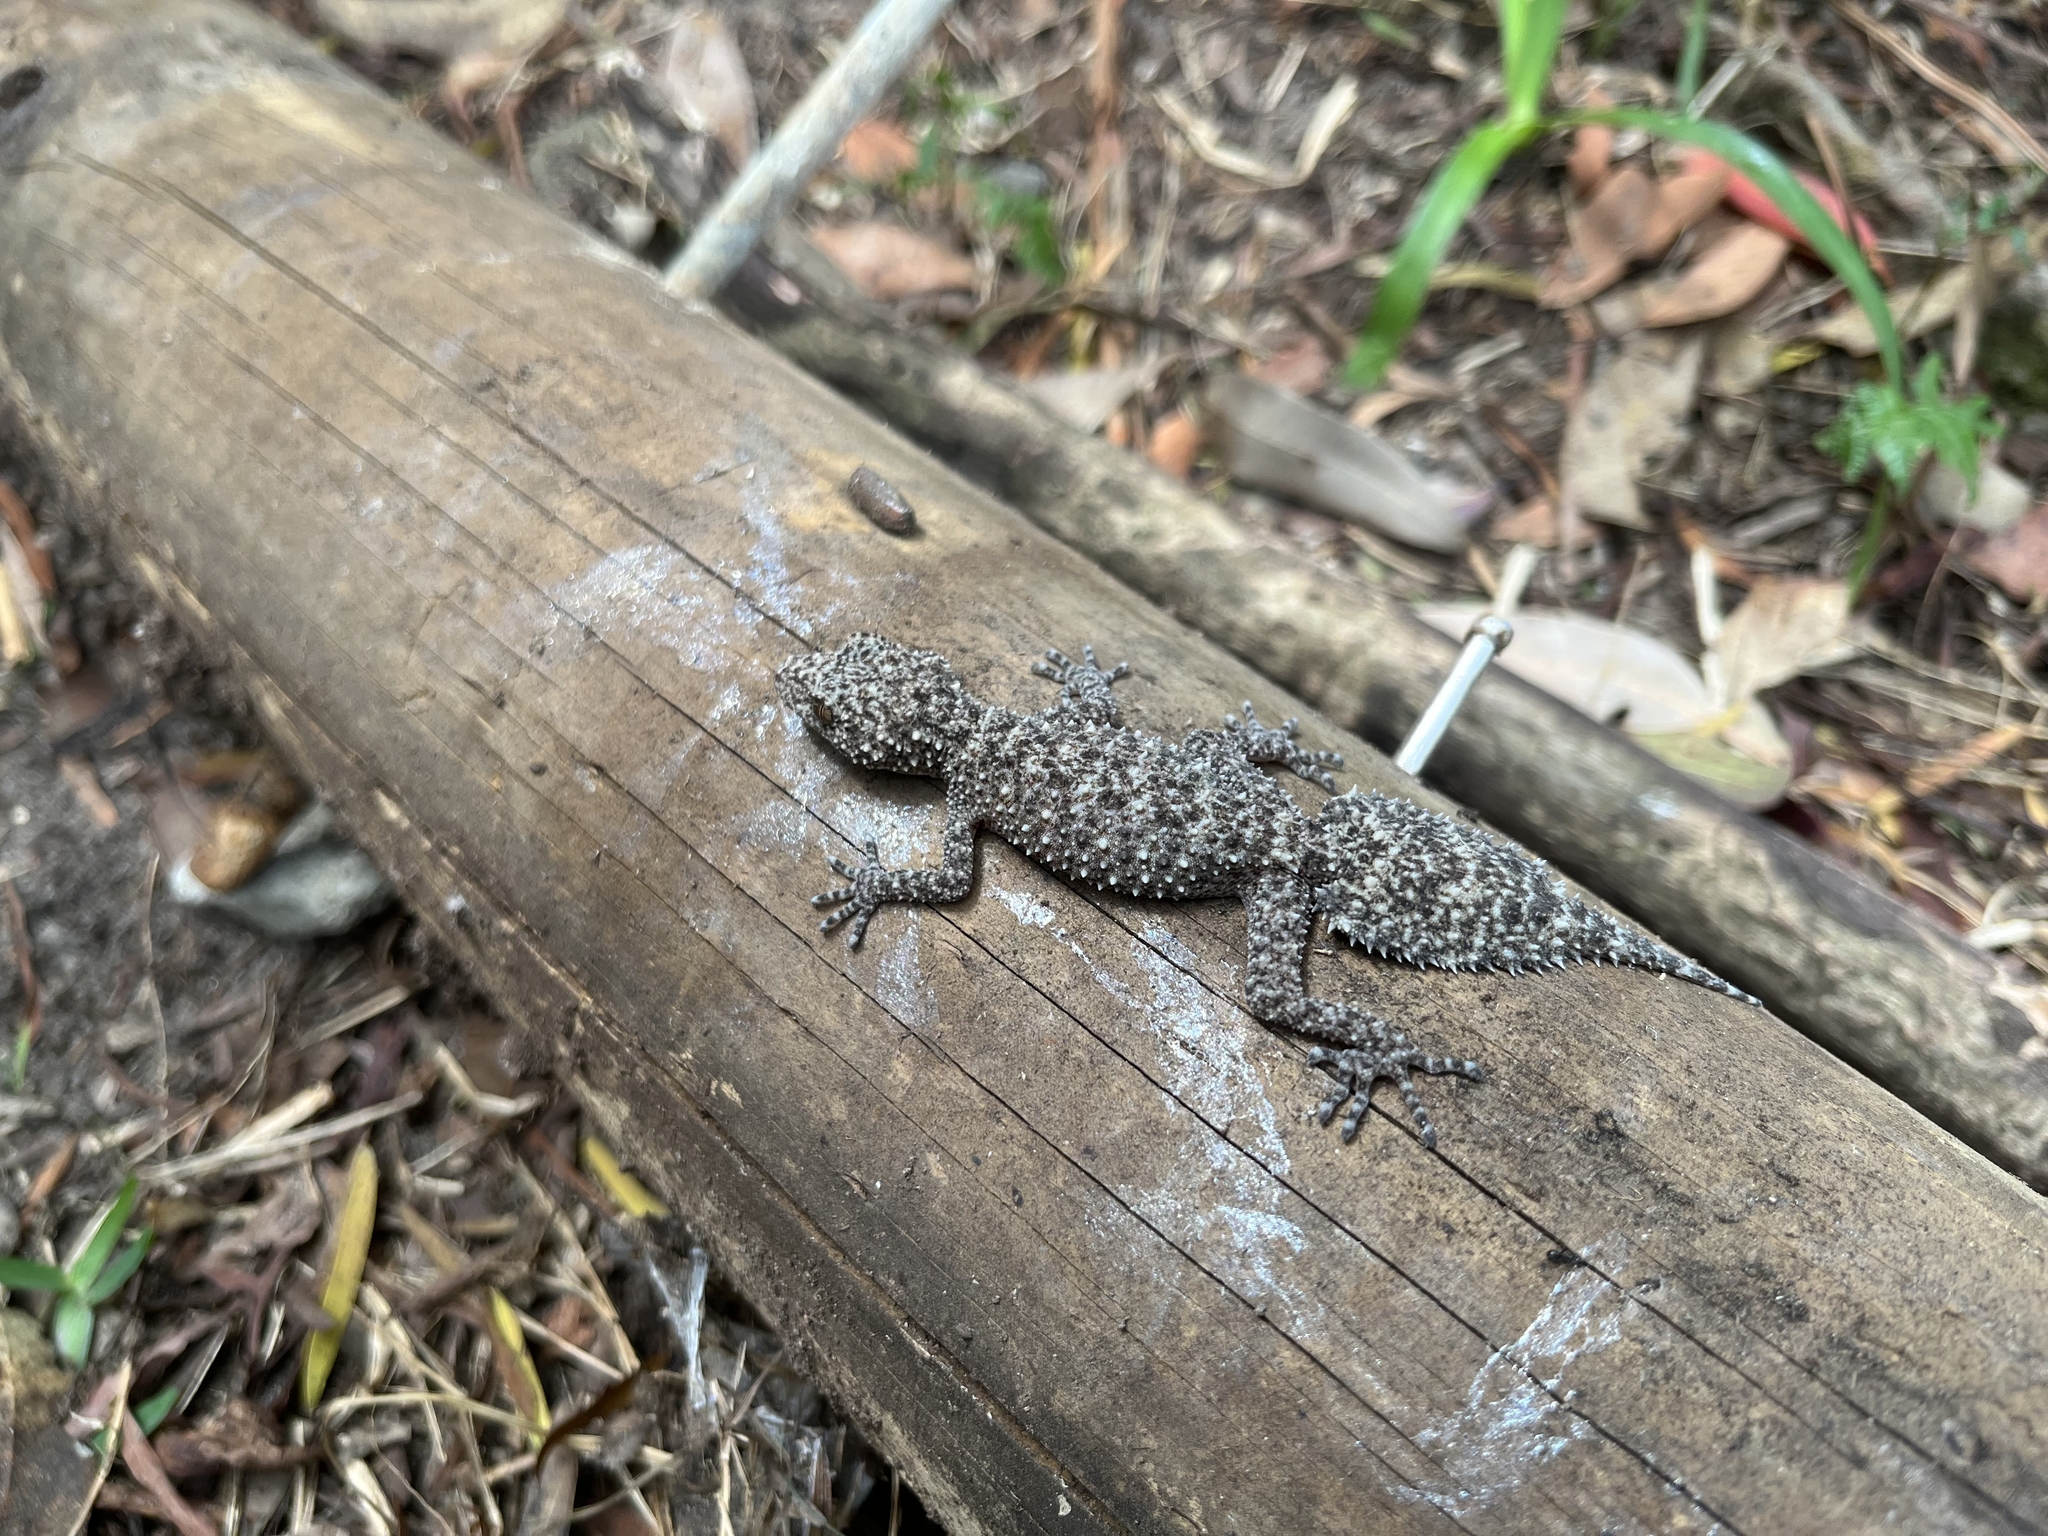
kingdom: Animalia
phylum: Chordata
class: Squamata
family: Carphodactylidae
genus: Phyllurus
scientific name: Phyllurus platurus
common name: Broad-tailed gecko
